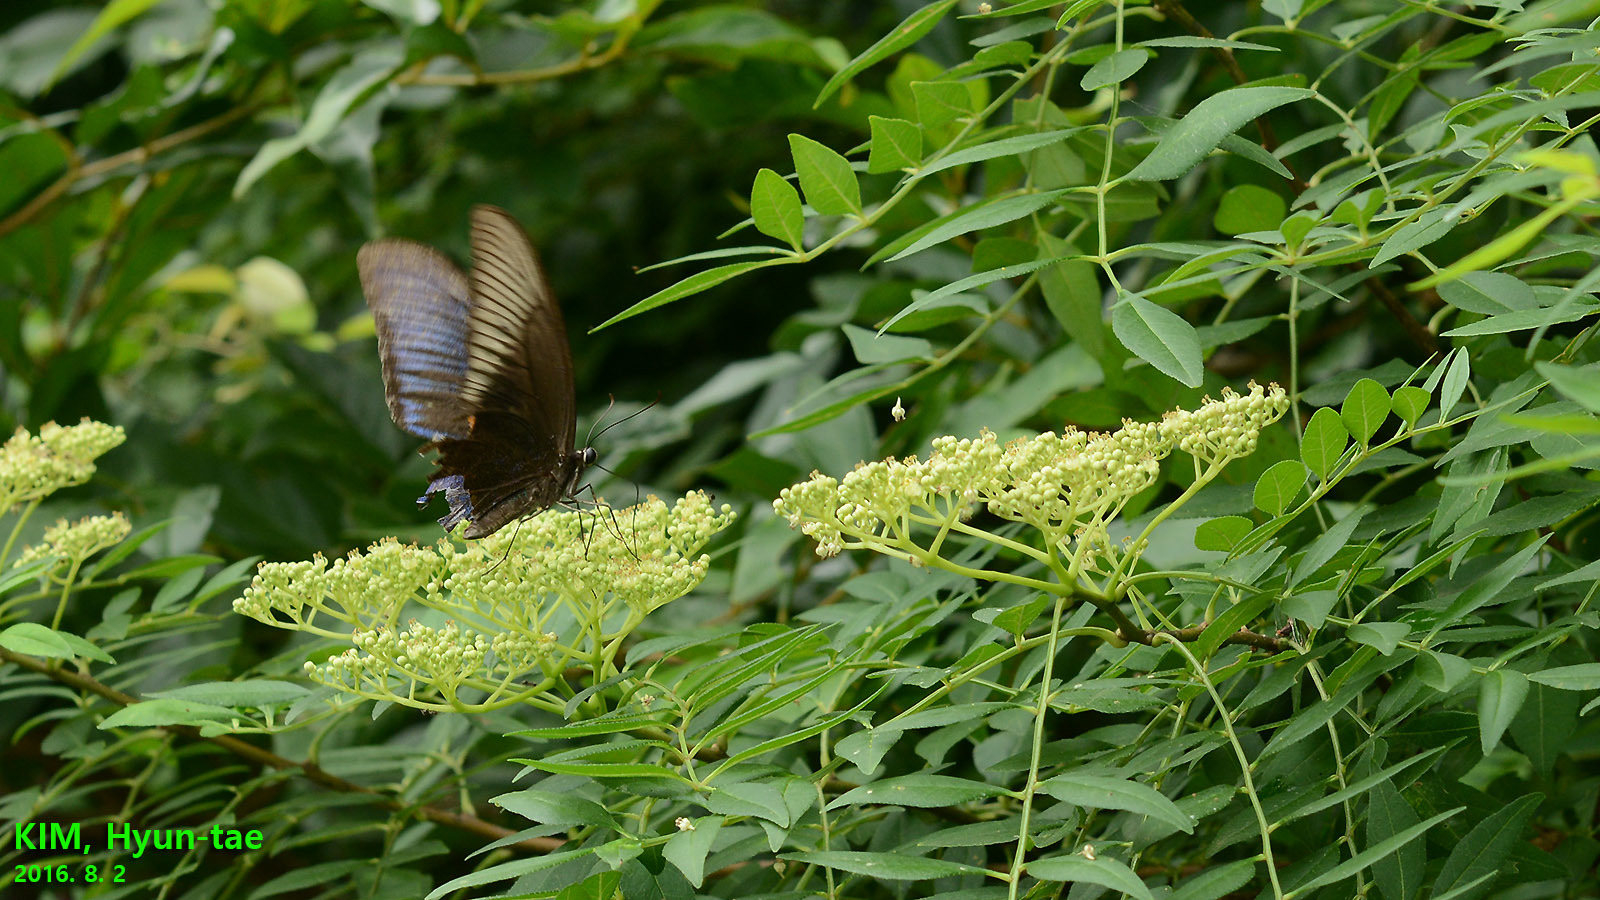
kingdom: Animalia
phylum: Arthropoda
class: Insecta
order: Lepidoptera
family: Papilionidae
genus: Papilio
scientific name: Papilio dehaanii
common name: Japanese peacock swallowtail
